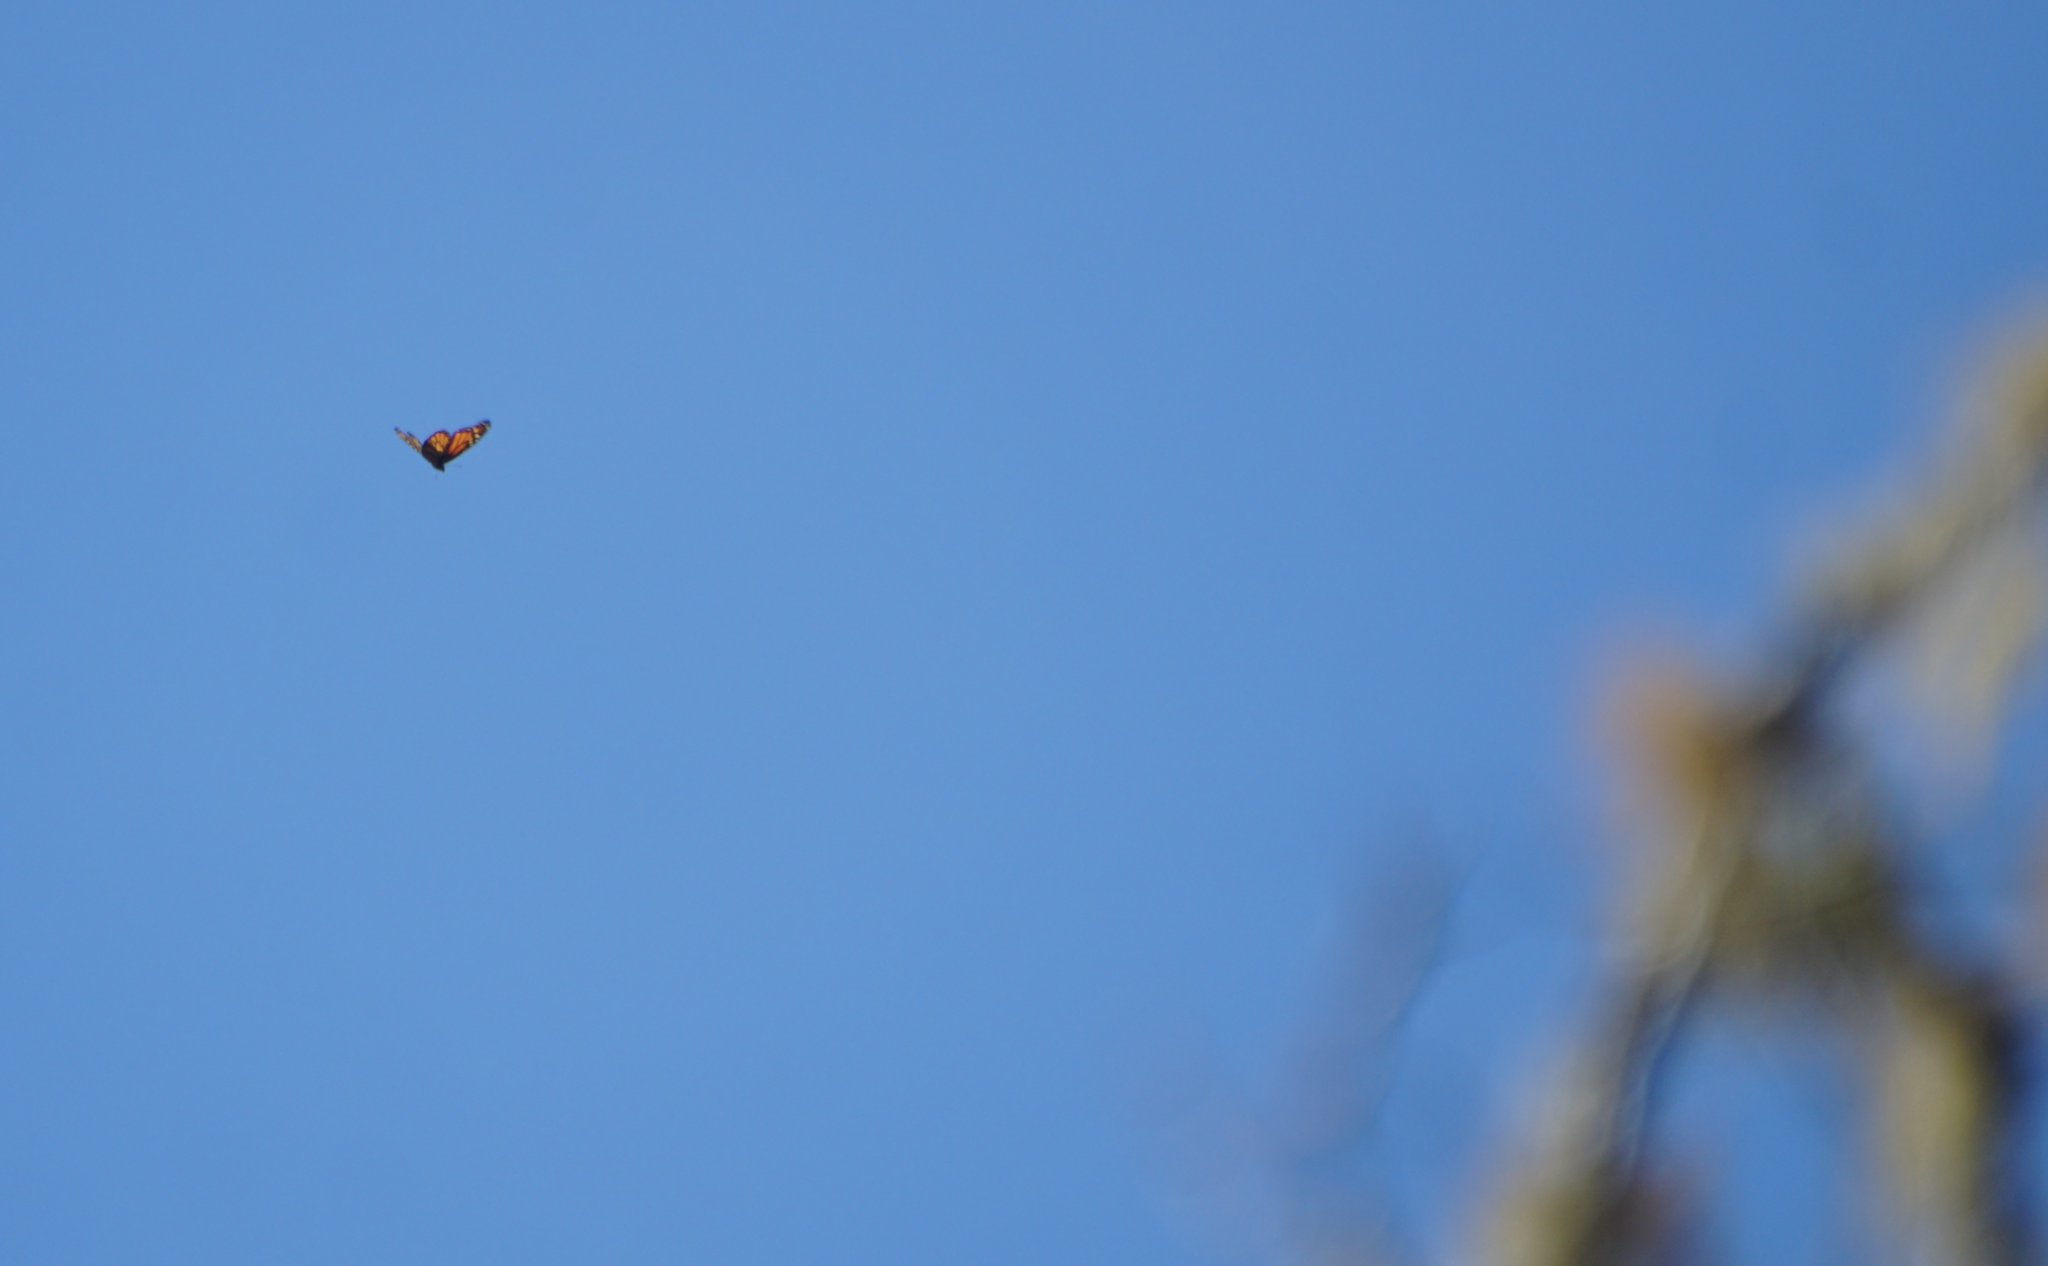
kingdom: Animalia
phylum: Arthropoda
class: Insecta
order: Lepidoptera
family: Nymphalidae
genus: Danaus
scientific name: Danaus plexippus
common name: Monarch
